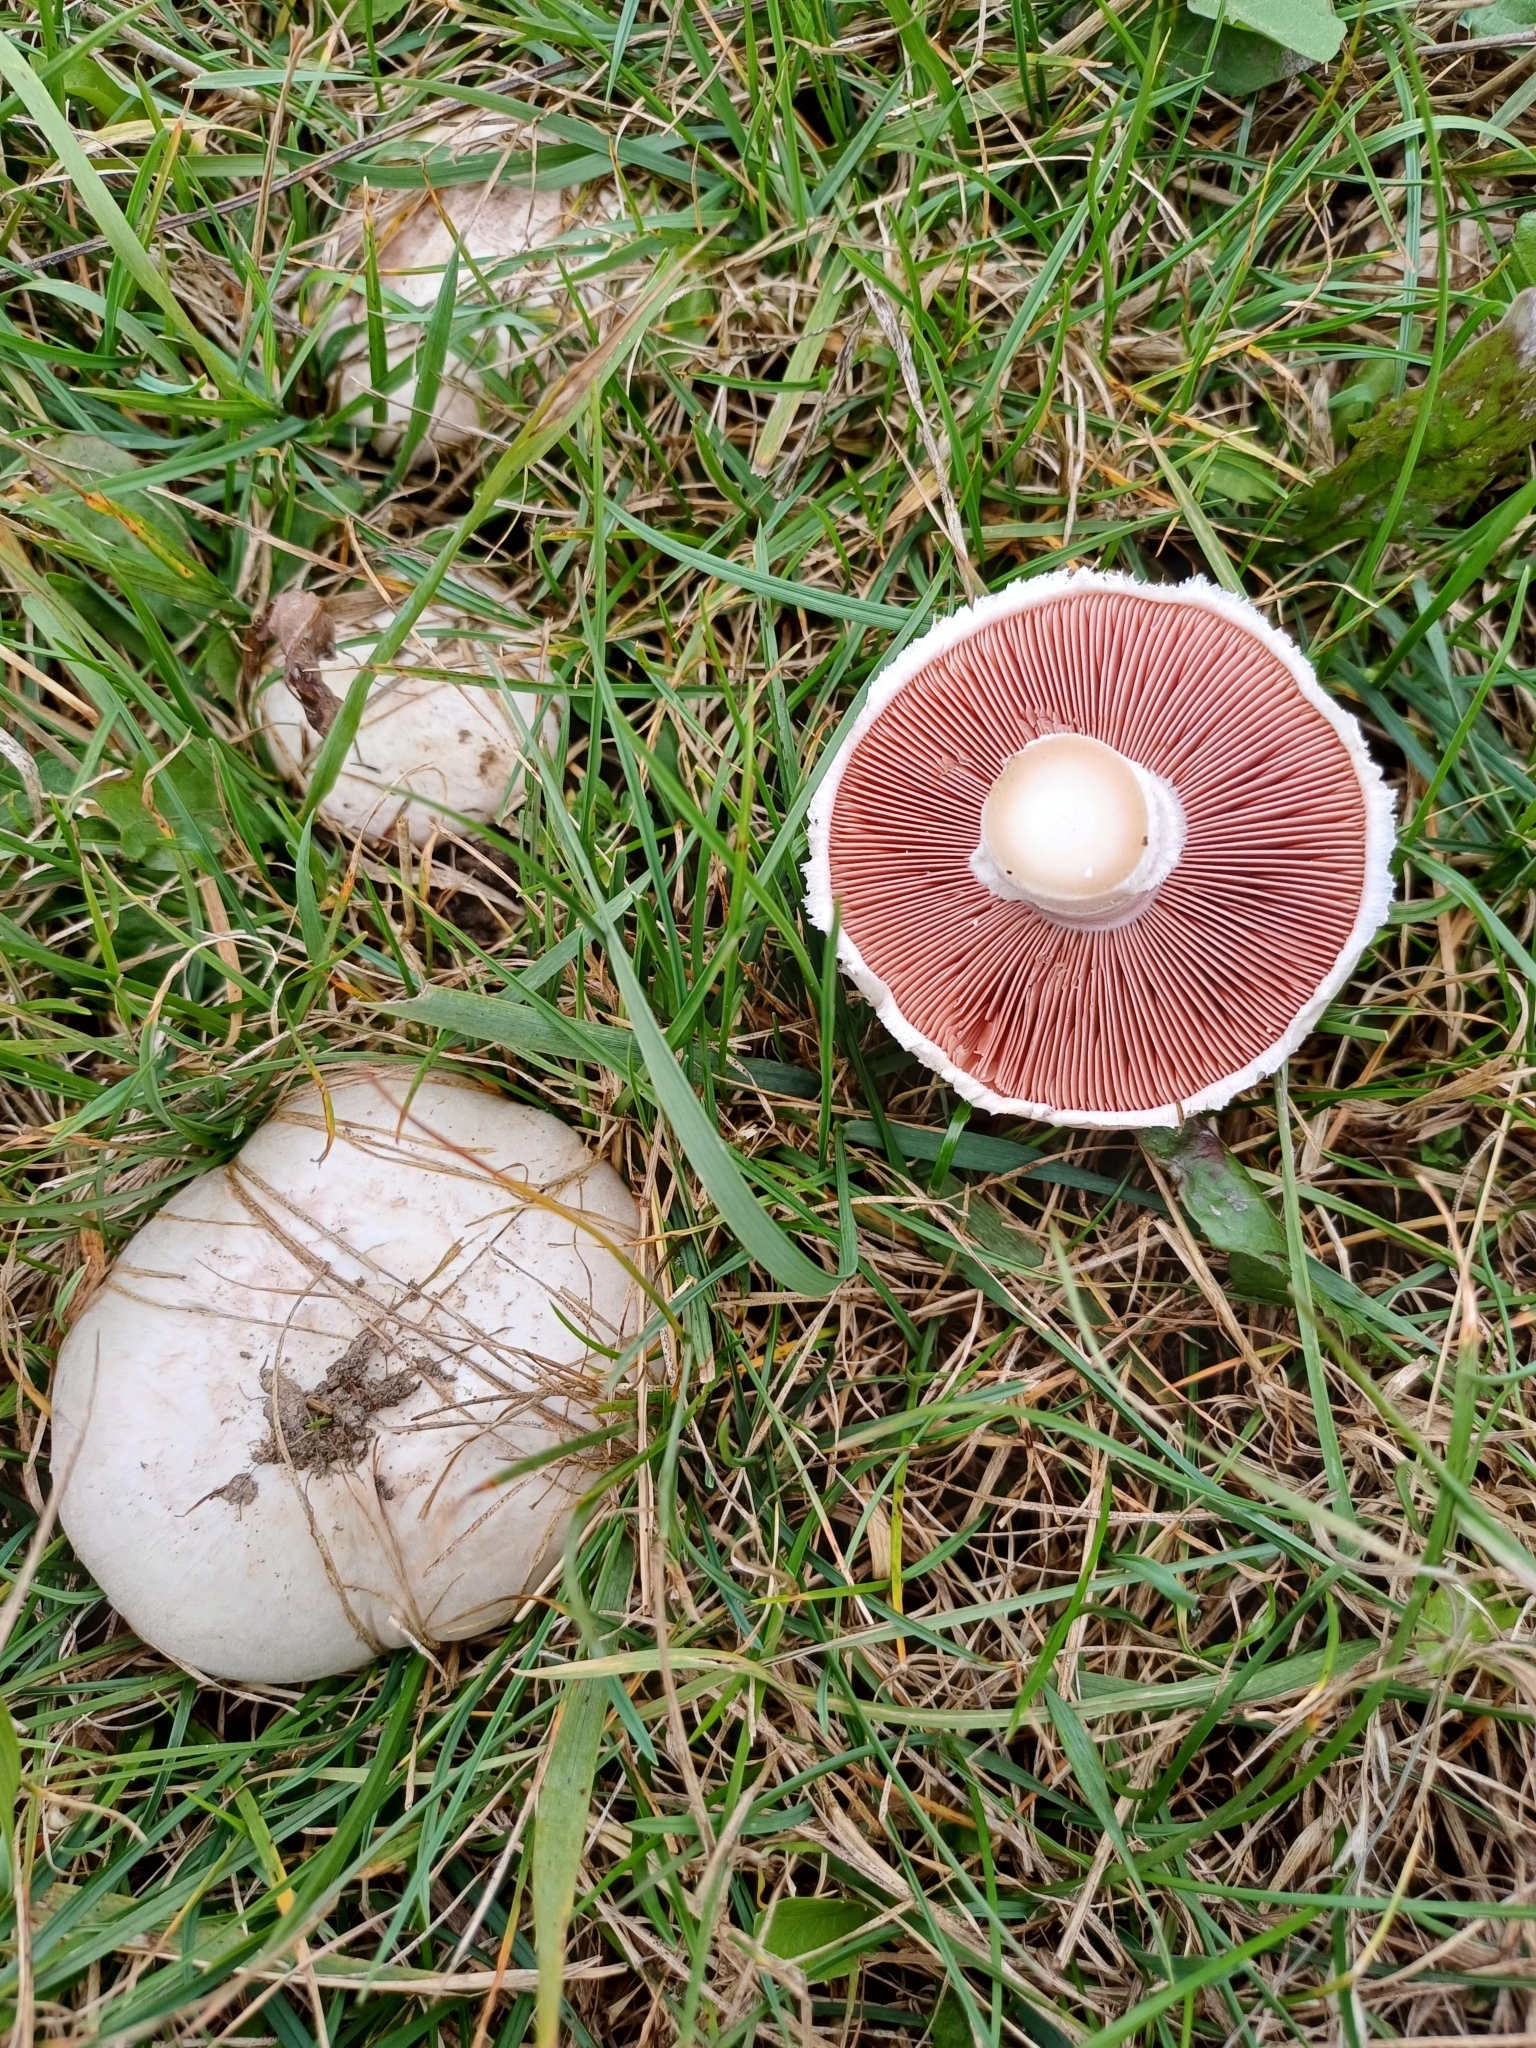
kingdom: Fungi
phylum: Basidiomycota
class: Agaricomycetes
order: Agaricales
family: Agaricaceae
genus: Agaricus
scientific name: Agaricus campestris
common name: Field mushroom
